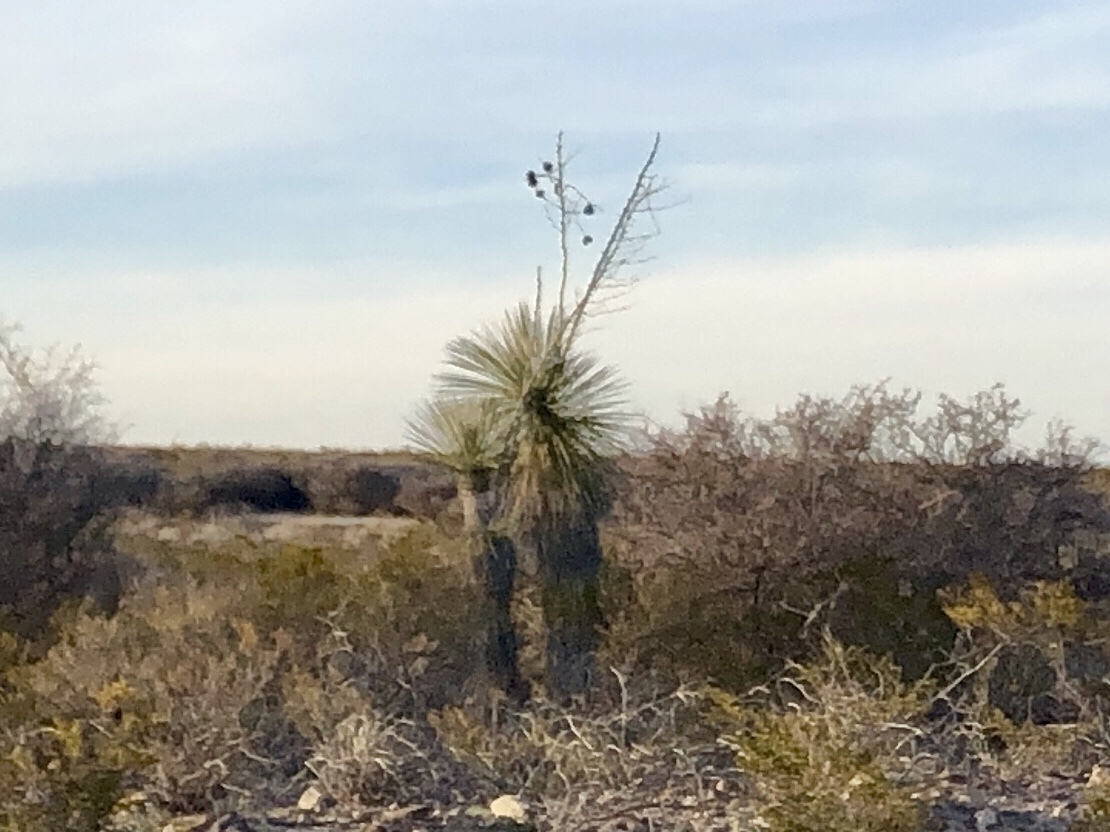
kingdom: Plantae
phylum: Tracheophyta
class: Liliopsida
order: Asparagales
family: Asparagaceae
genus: Yucca
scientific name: Yucca elata
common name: Palmella
